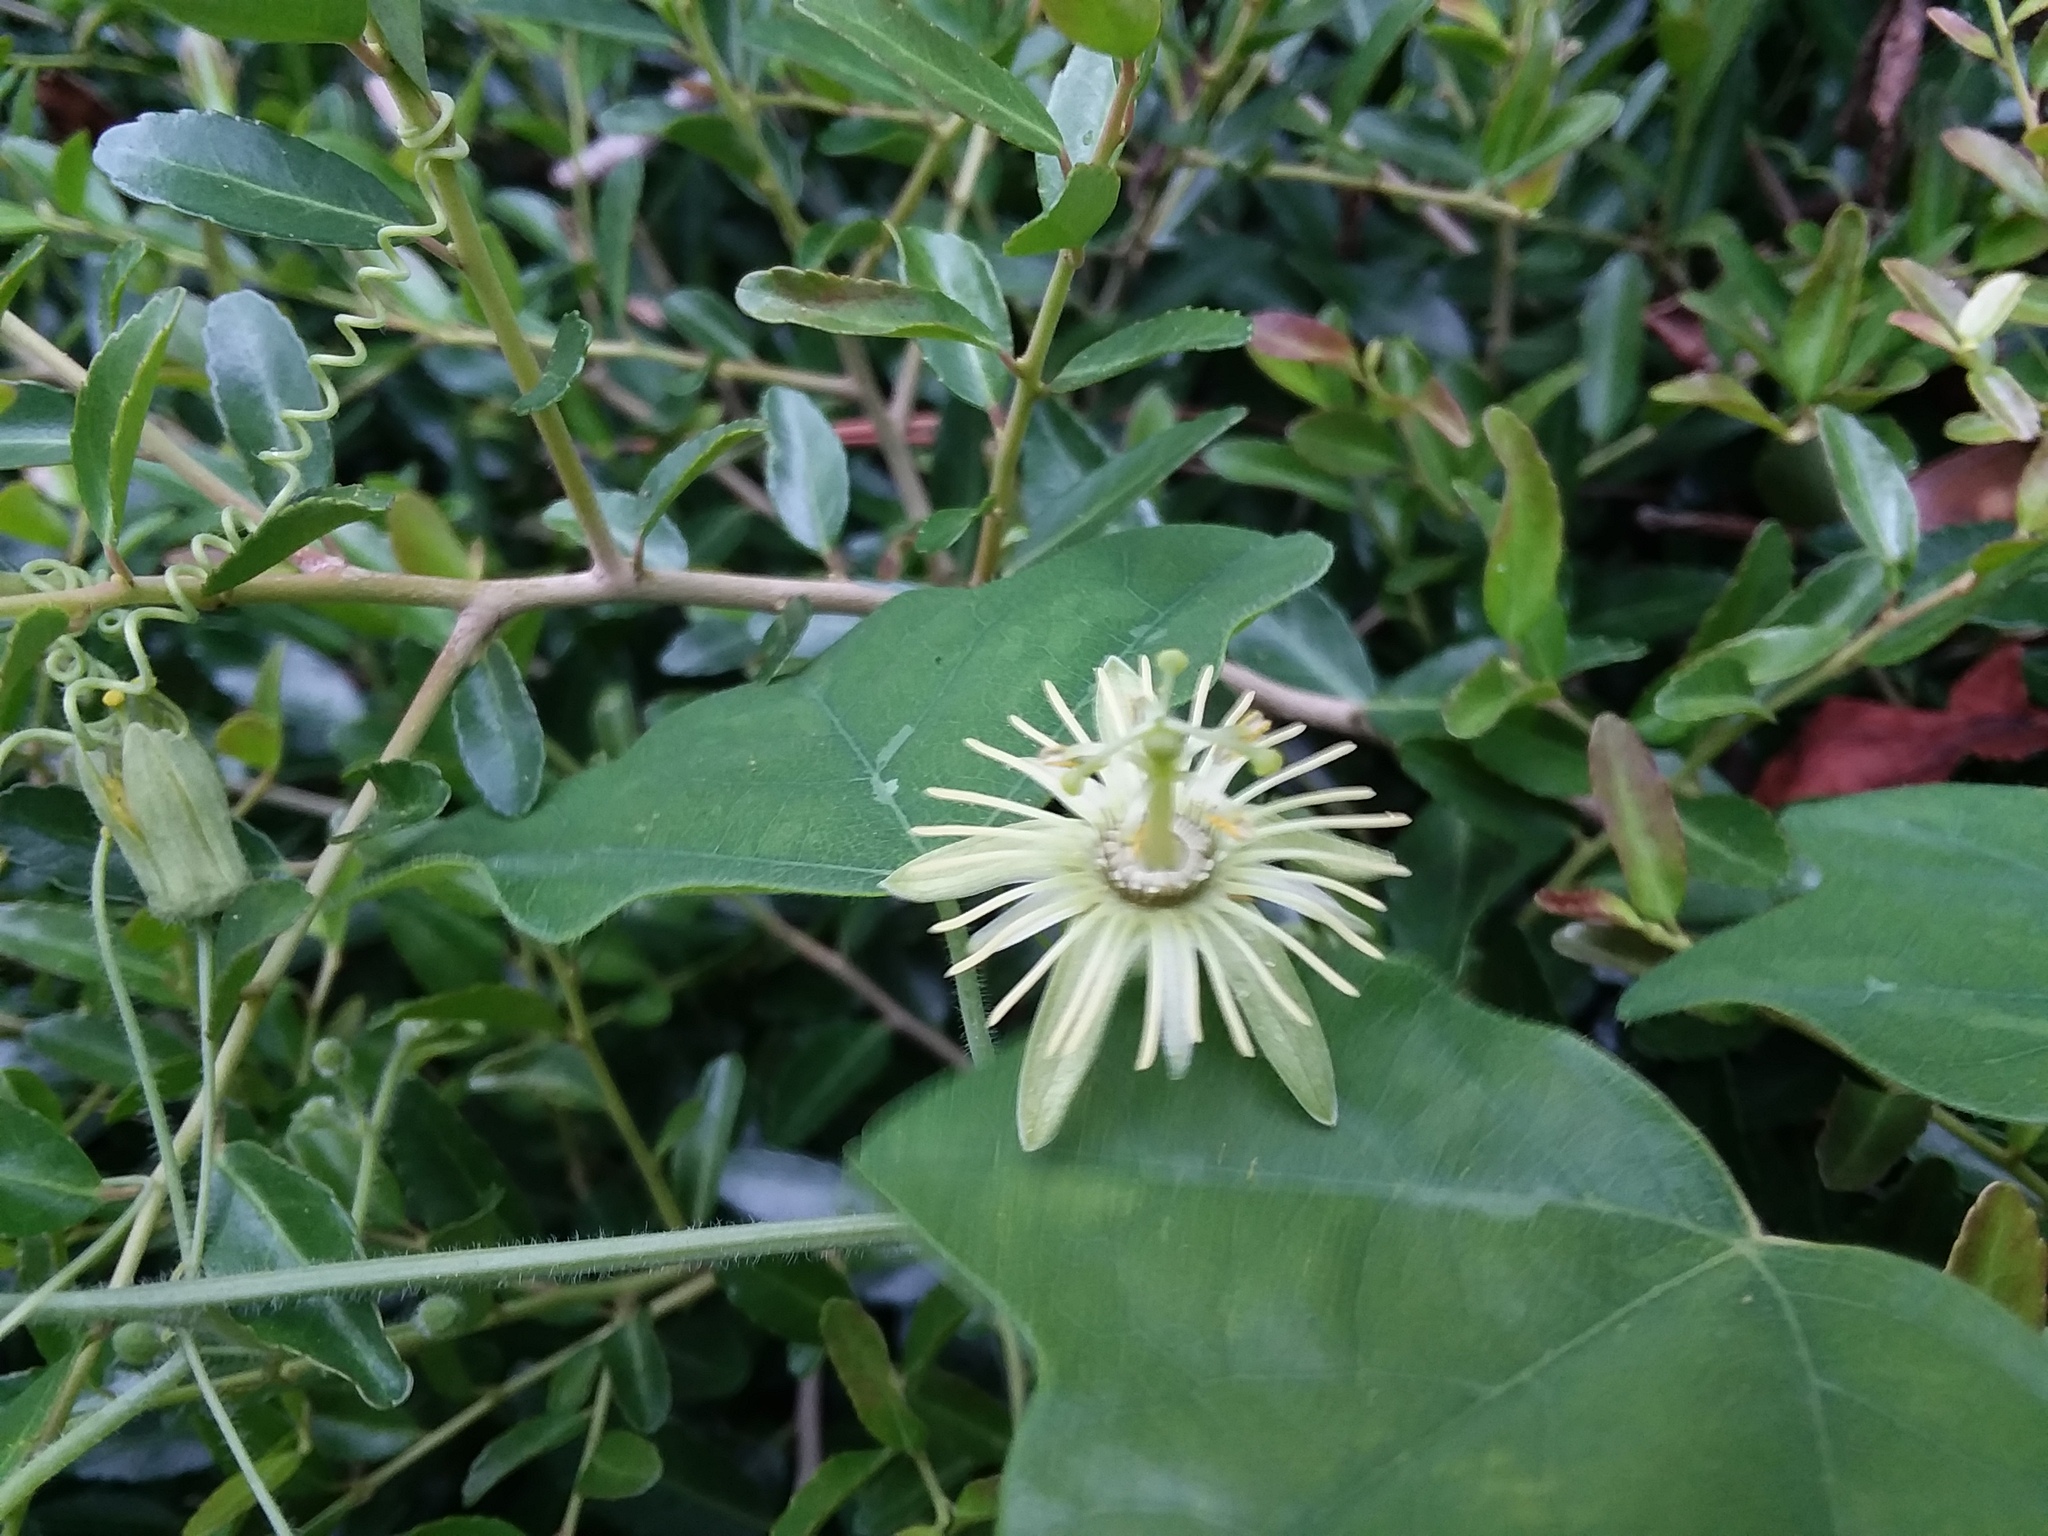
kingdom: Plantae
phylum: Tracheophyta
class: Magnoliopsida
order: Malpighiales
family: Passifloraceae
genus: Passiflora
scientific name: Passiflora lutea
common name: Yellow passionflower
